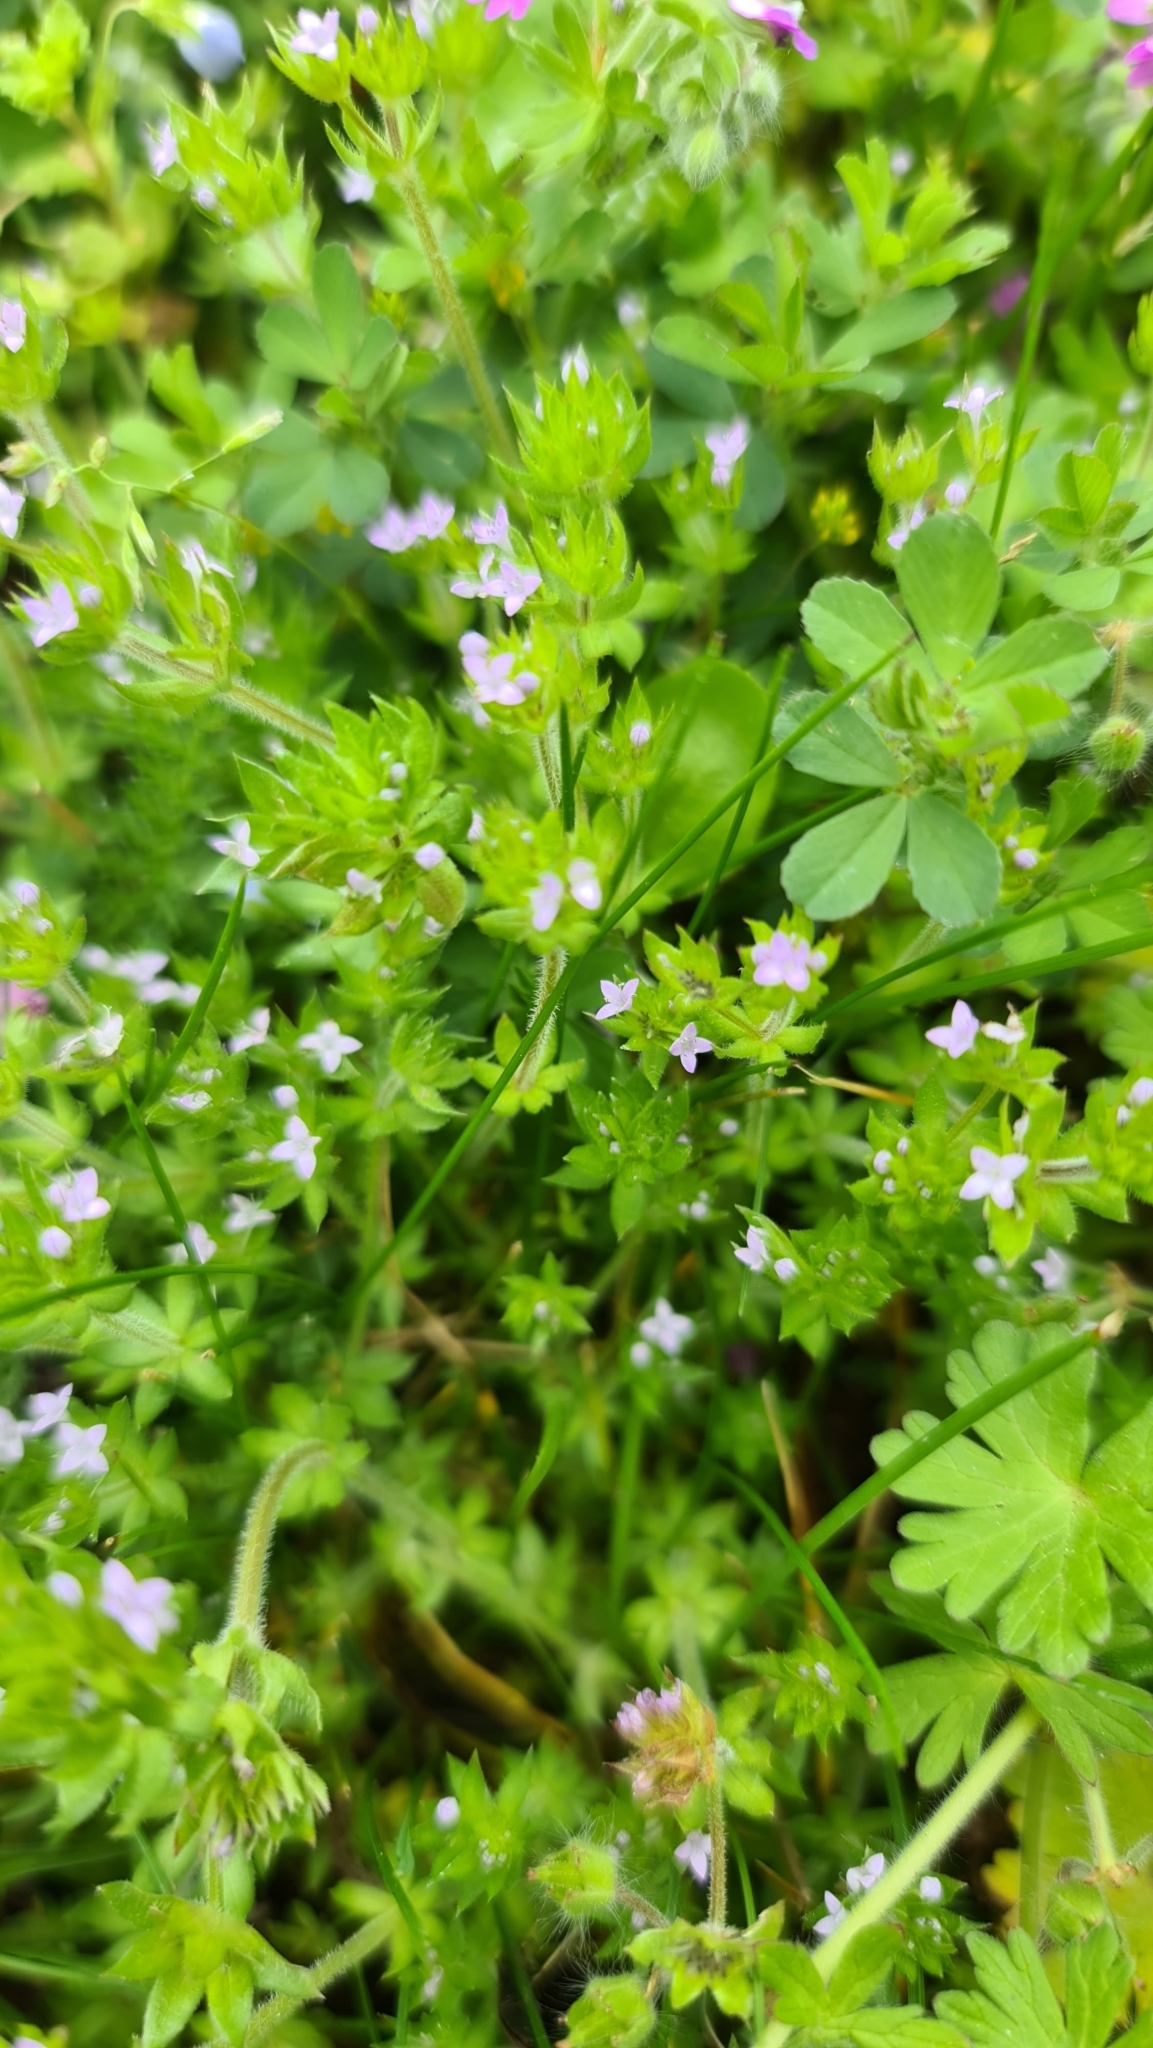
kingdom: Plantae
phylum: Tracheophyta
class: Magnoliopsida
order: Gentianales
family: Rubiaceae
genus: Sherardia
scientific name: Sherardia arvensis
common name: Field madder
